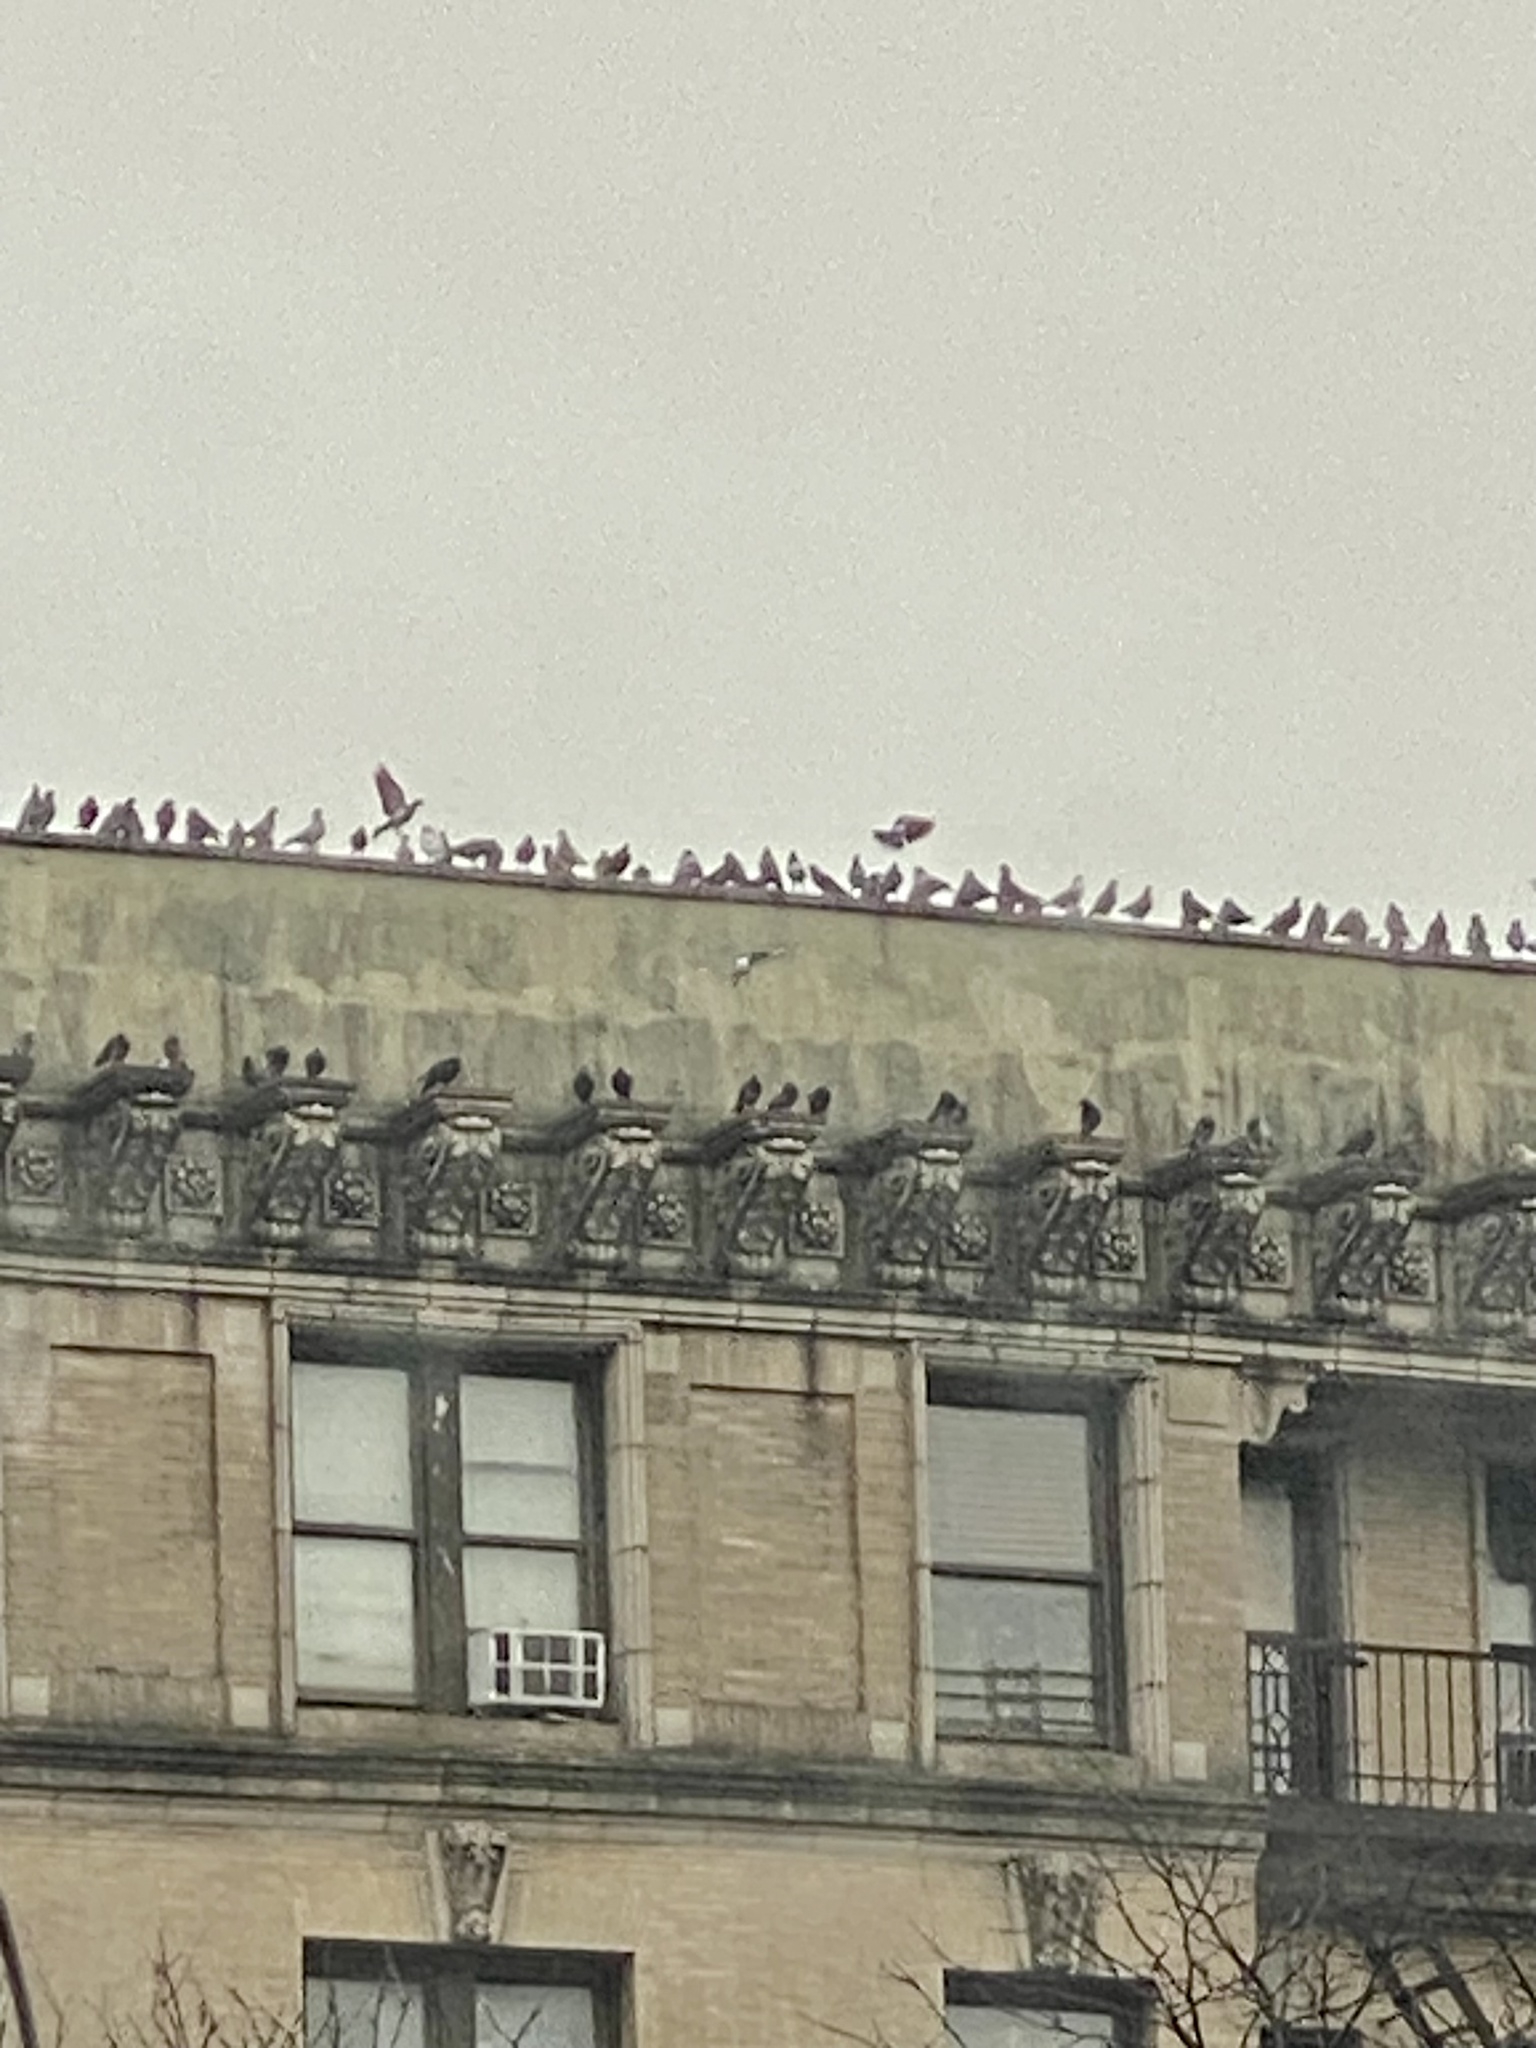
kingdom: Animalia
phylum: Chordata
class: Aves
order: Columbiformes
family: Columbidae
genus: Columba
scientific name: Columba livia
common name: Rock pigeon
